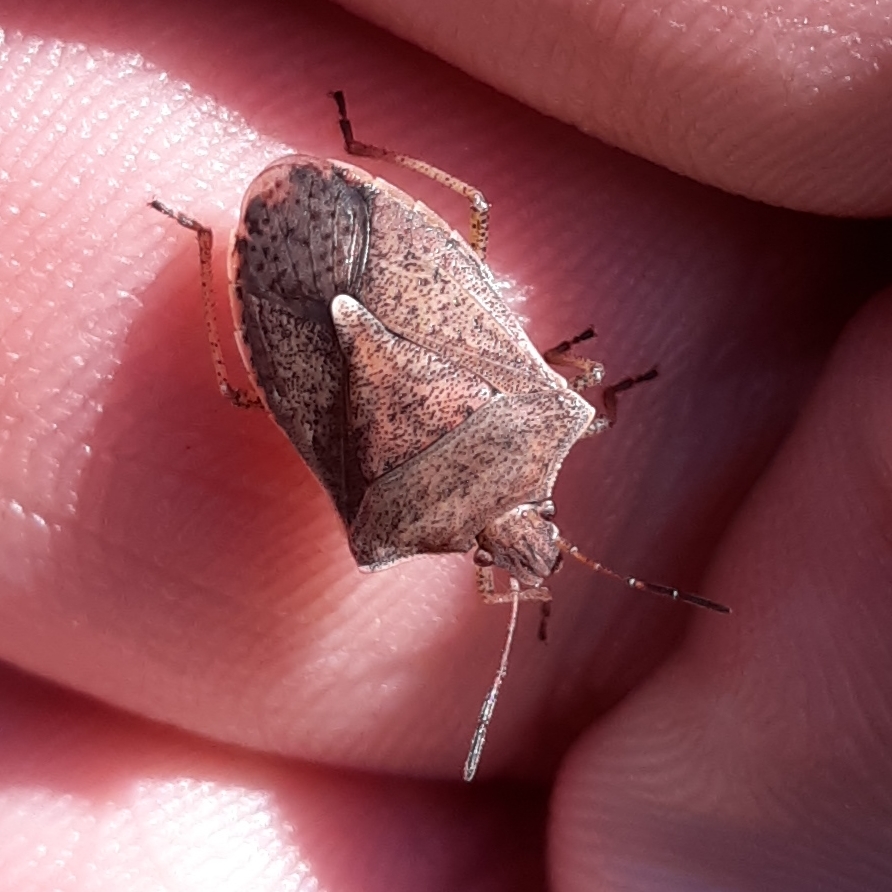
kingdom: Animalia
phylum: Arthropoda
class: Insecta
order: Hemiptera
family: Pentatomidae
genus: Euschistus
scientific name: Euschistus servus
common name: Brown stink bug
